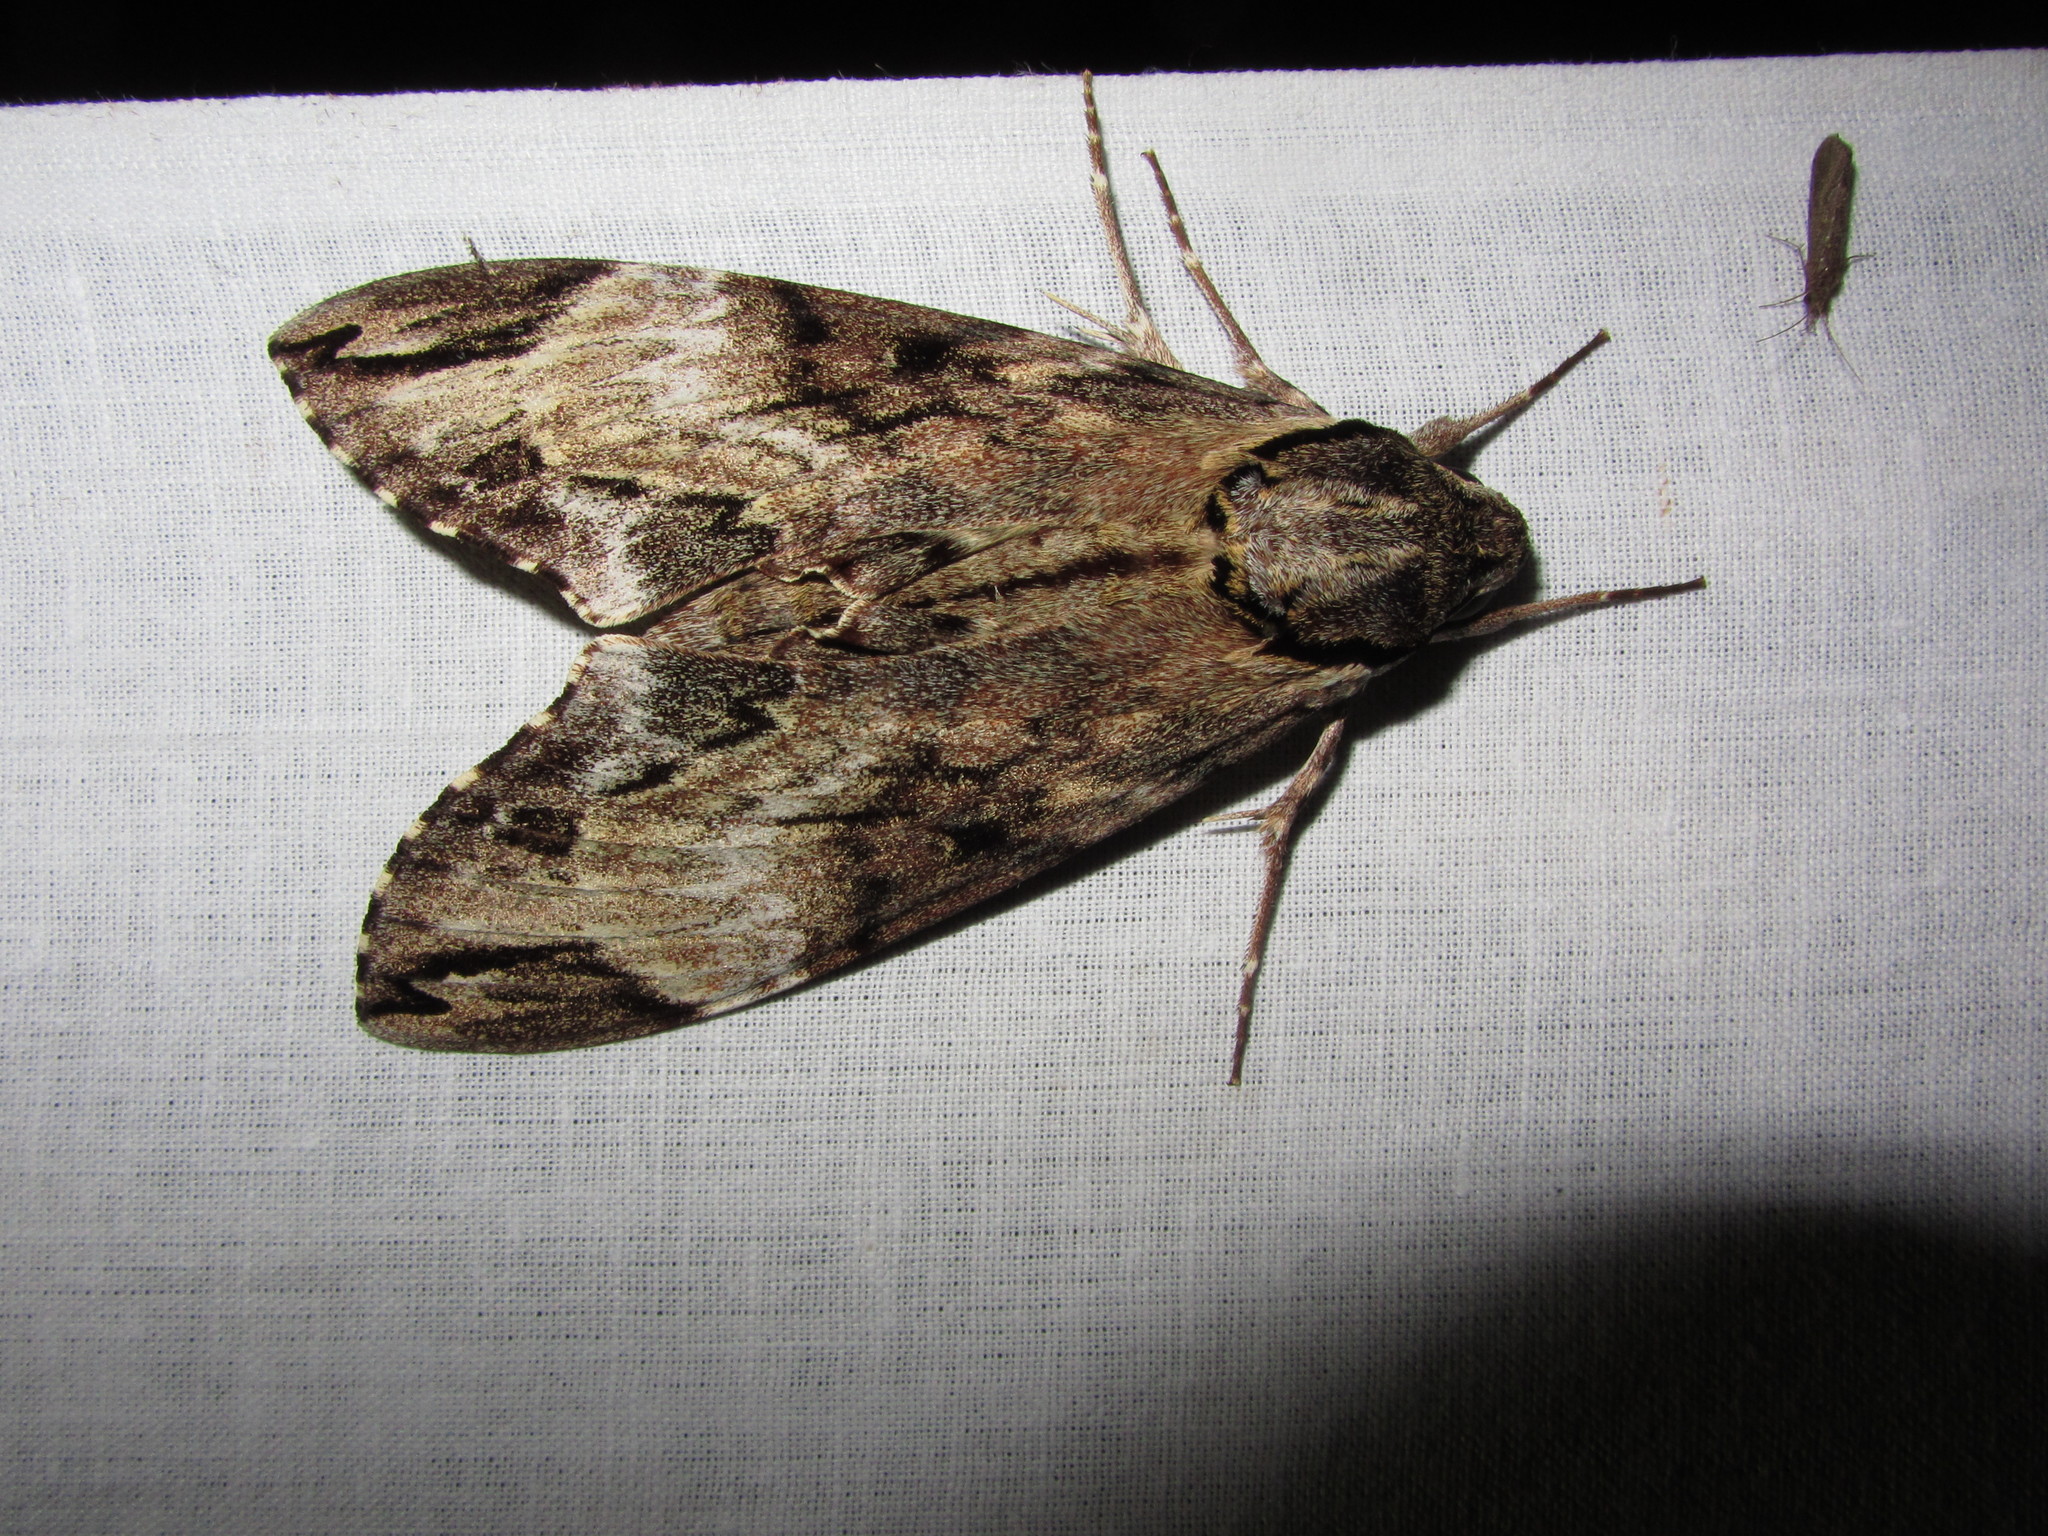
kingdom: Animalia
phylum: Arthropoda
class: Insecta
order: Lepidoptera
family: Sphingidae
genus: Psilogramma
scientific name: Psilogramma discistriga
